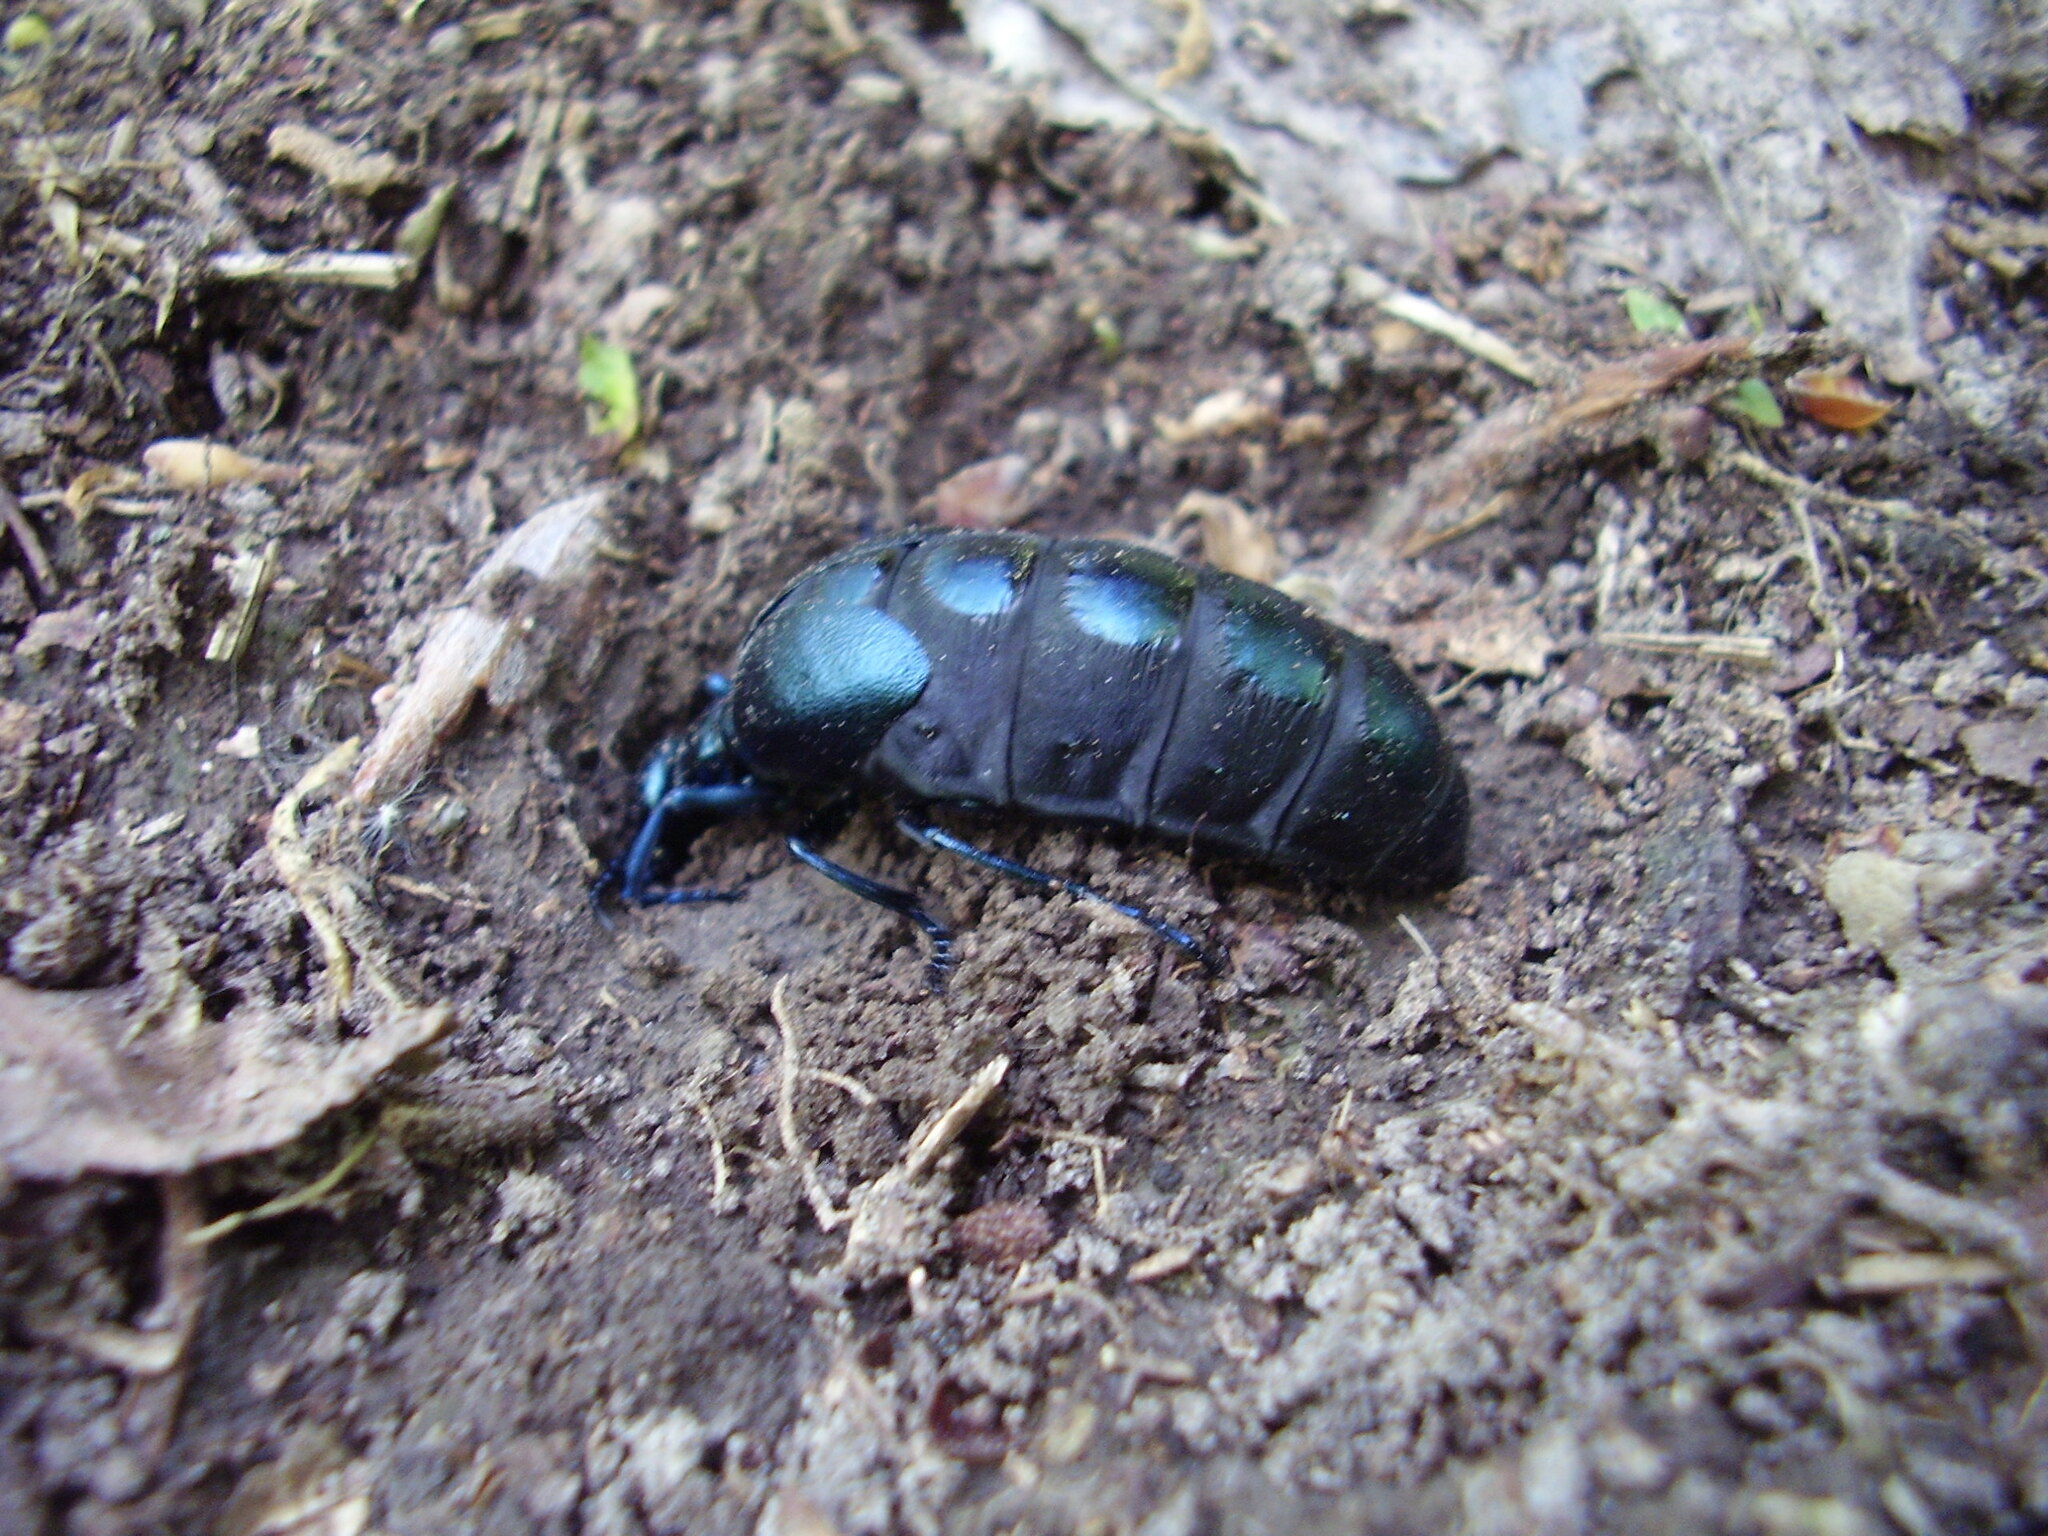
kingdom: Animalia
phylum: Arthropoda
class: Insecta
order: Coleoptera
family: Meloidae
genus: Meloe
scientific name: Meloe violaceus
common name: Violet oil-beetle
